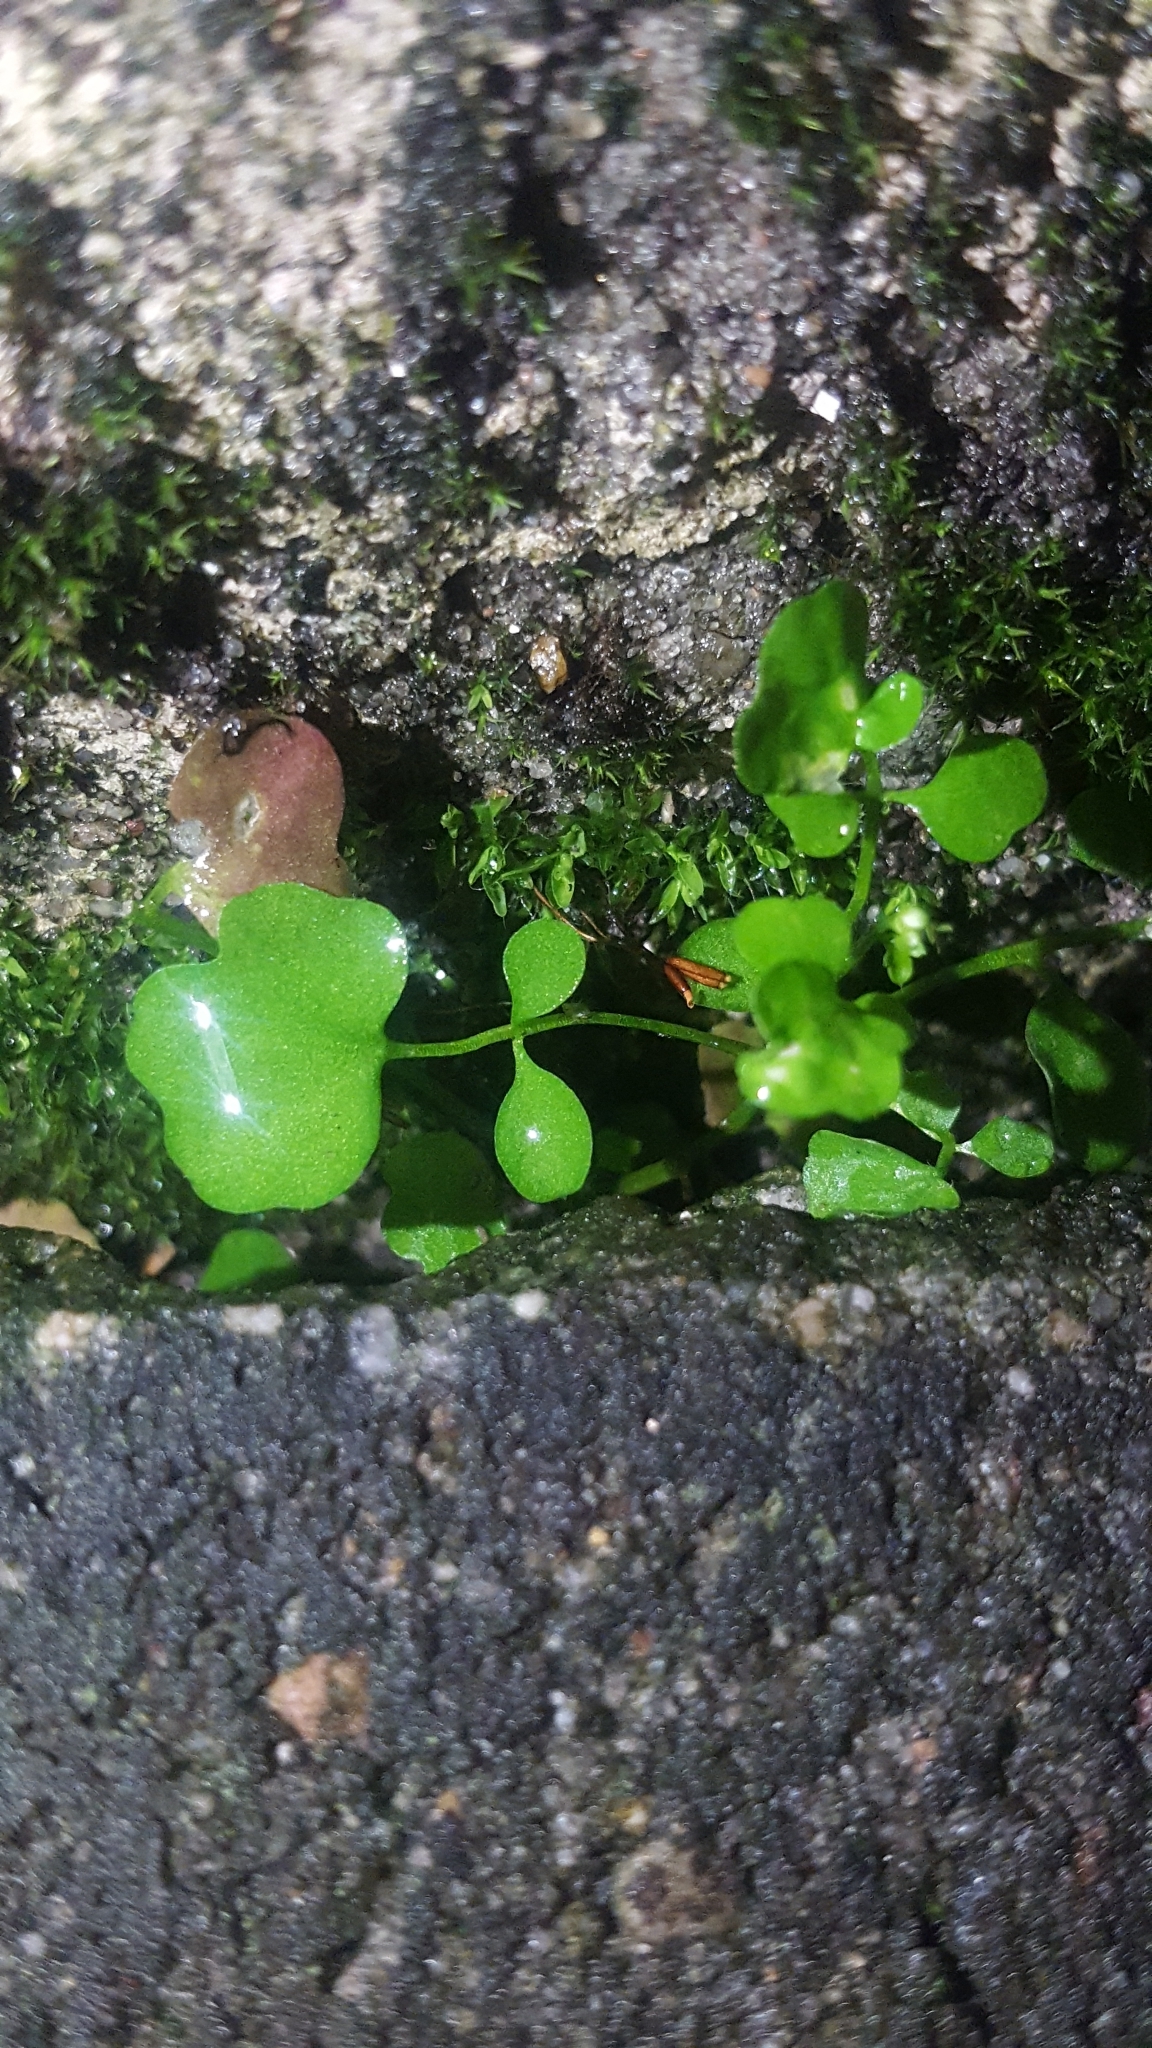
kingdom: Plantae
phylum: Tracheophyta
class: Magnoliopsida
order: Brassicales
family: Brassicaceae
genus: Cardamine
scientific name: Cardamine hirsuta
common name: Hairy bittercress
